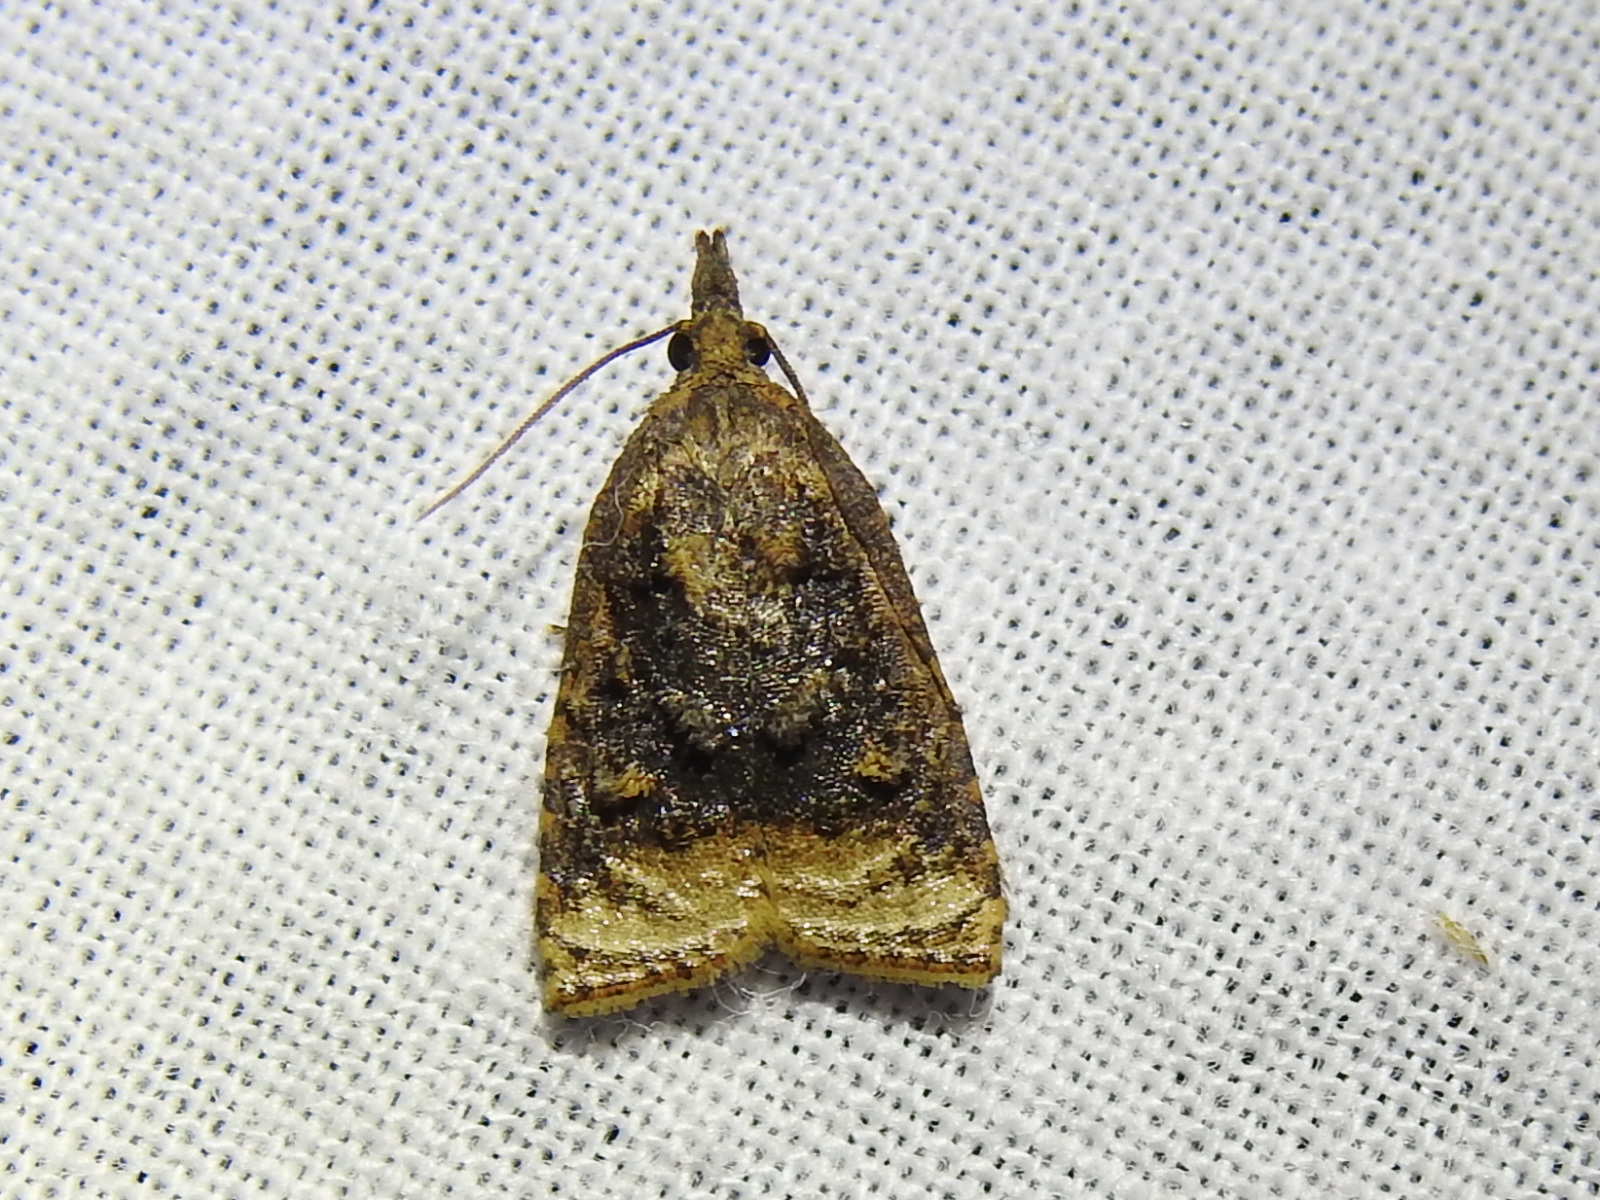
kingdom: Animalia
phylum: Arthropoda
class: Insecta
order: Lepidoptera
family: Tortricidae
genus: Platynota
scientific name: Platynota flavedana
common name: Black-shaded platynota moth
